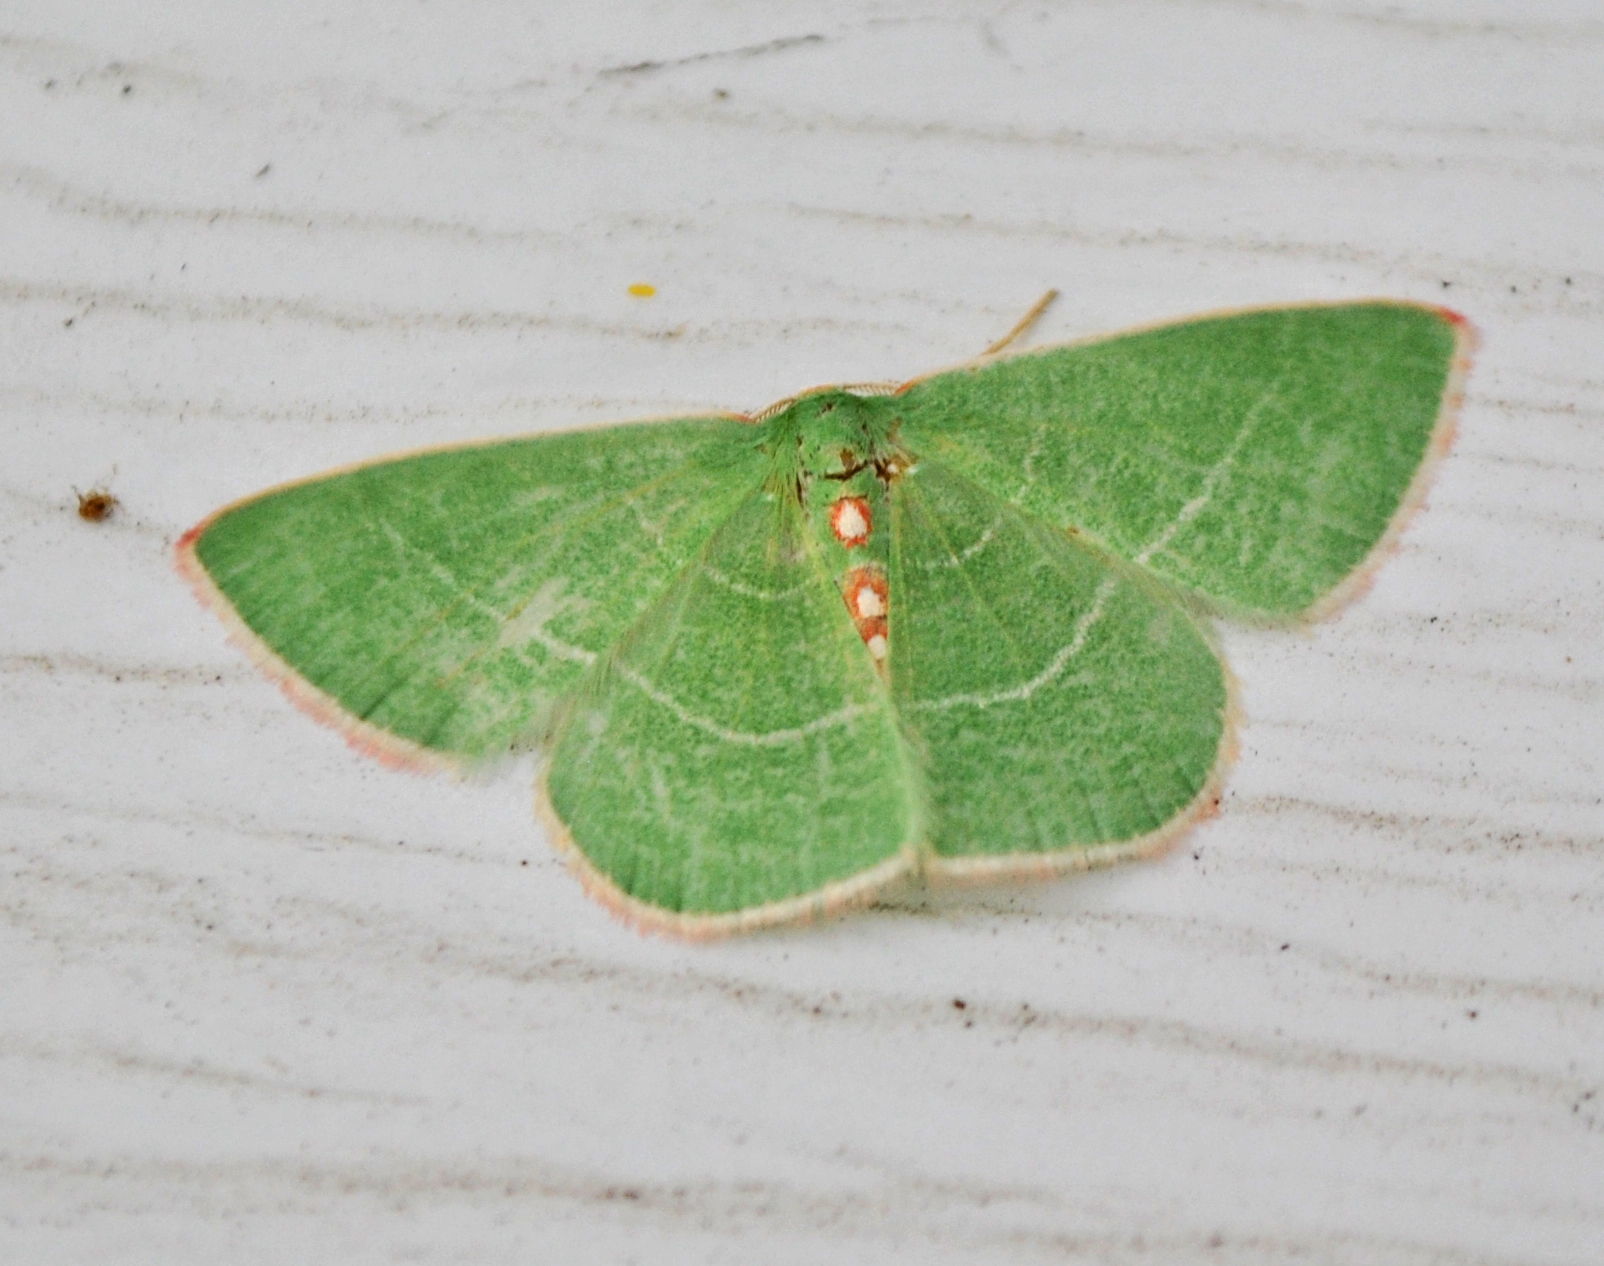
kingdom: Animalia
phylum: Arthropoda
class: Insecta
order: Lepidoptera
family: Geometridae
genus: Nemoria
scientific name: Nemoria rubrifrontaria
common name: Red-fronted emerald
